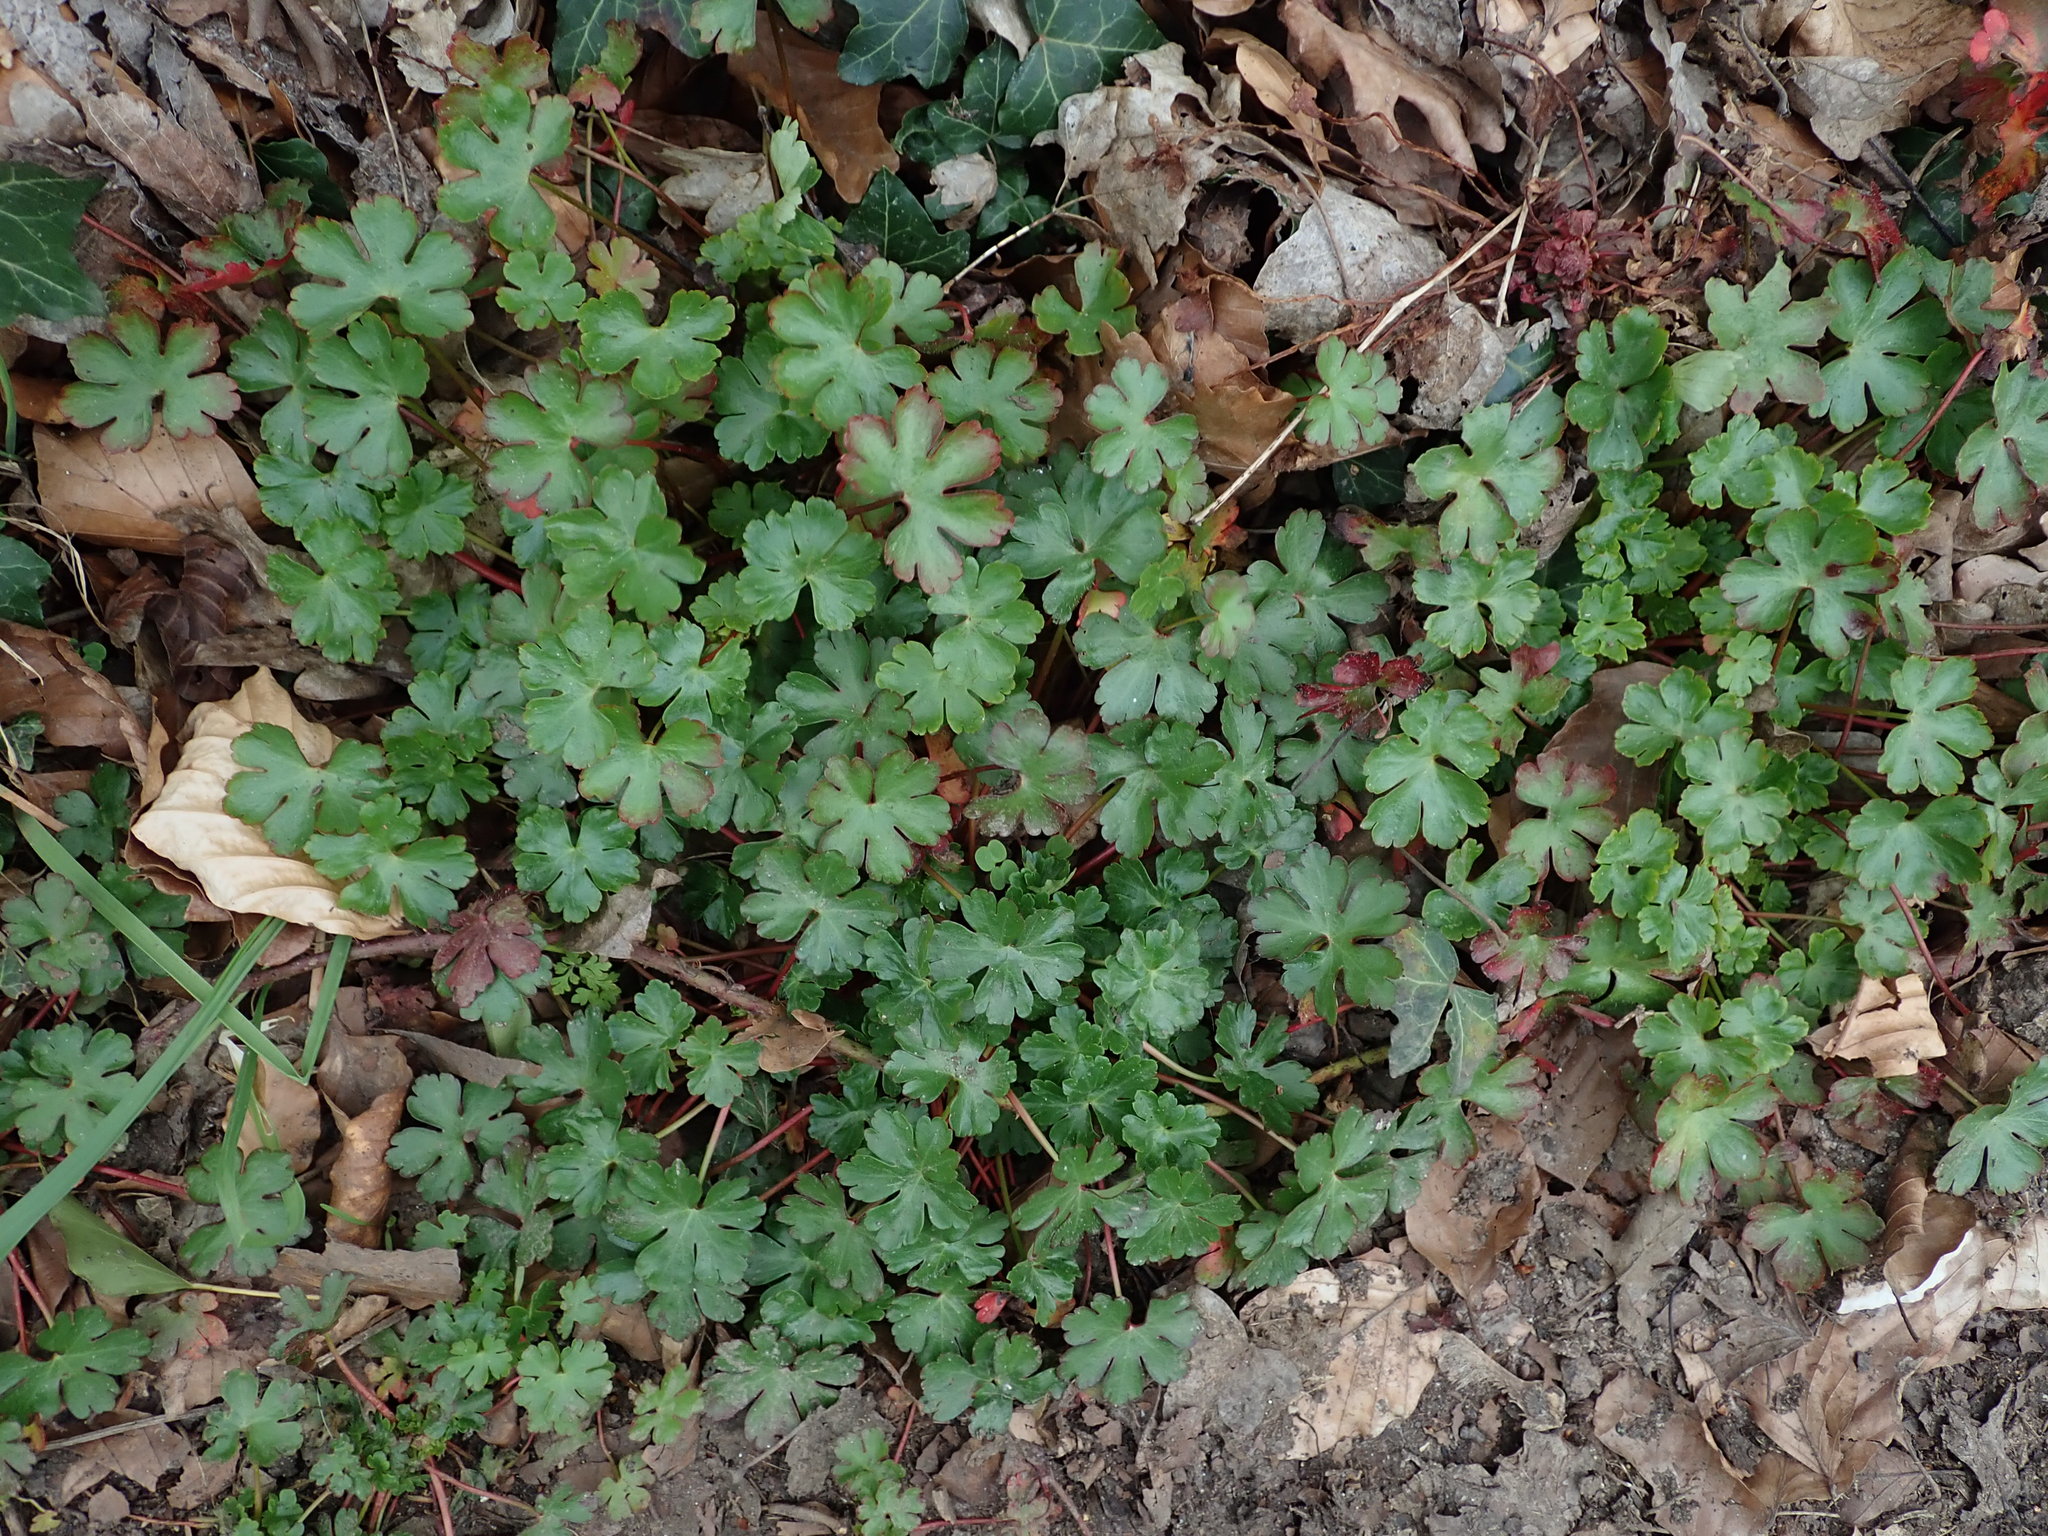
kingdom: Plantae
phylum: Tracheophyta
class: Magnoliopsida
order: Geraniales
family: Geraniaceae
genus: Geranium
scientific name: Geranium lucidum
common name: Shining crane's-bill
